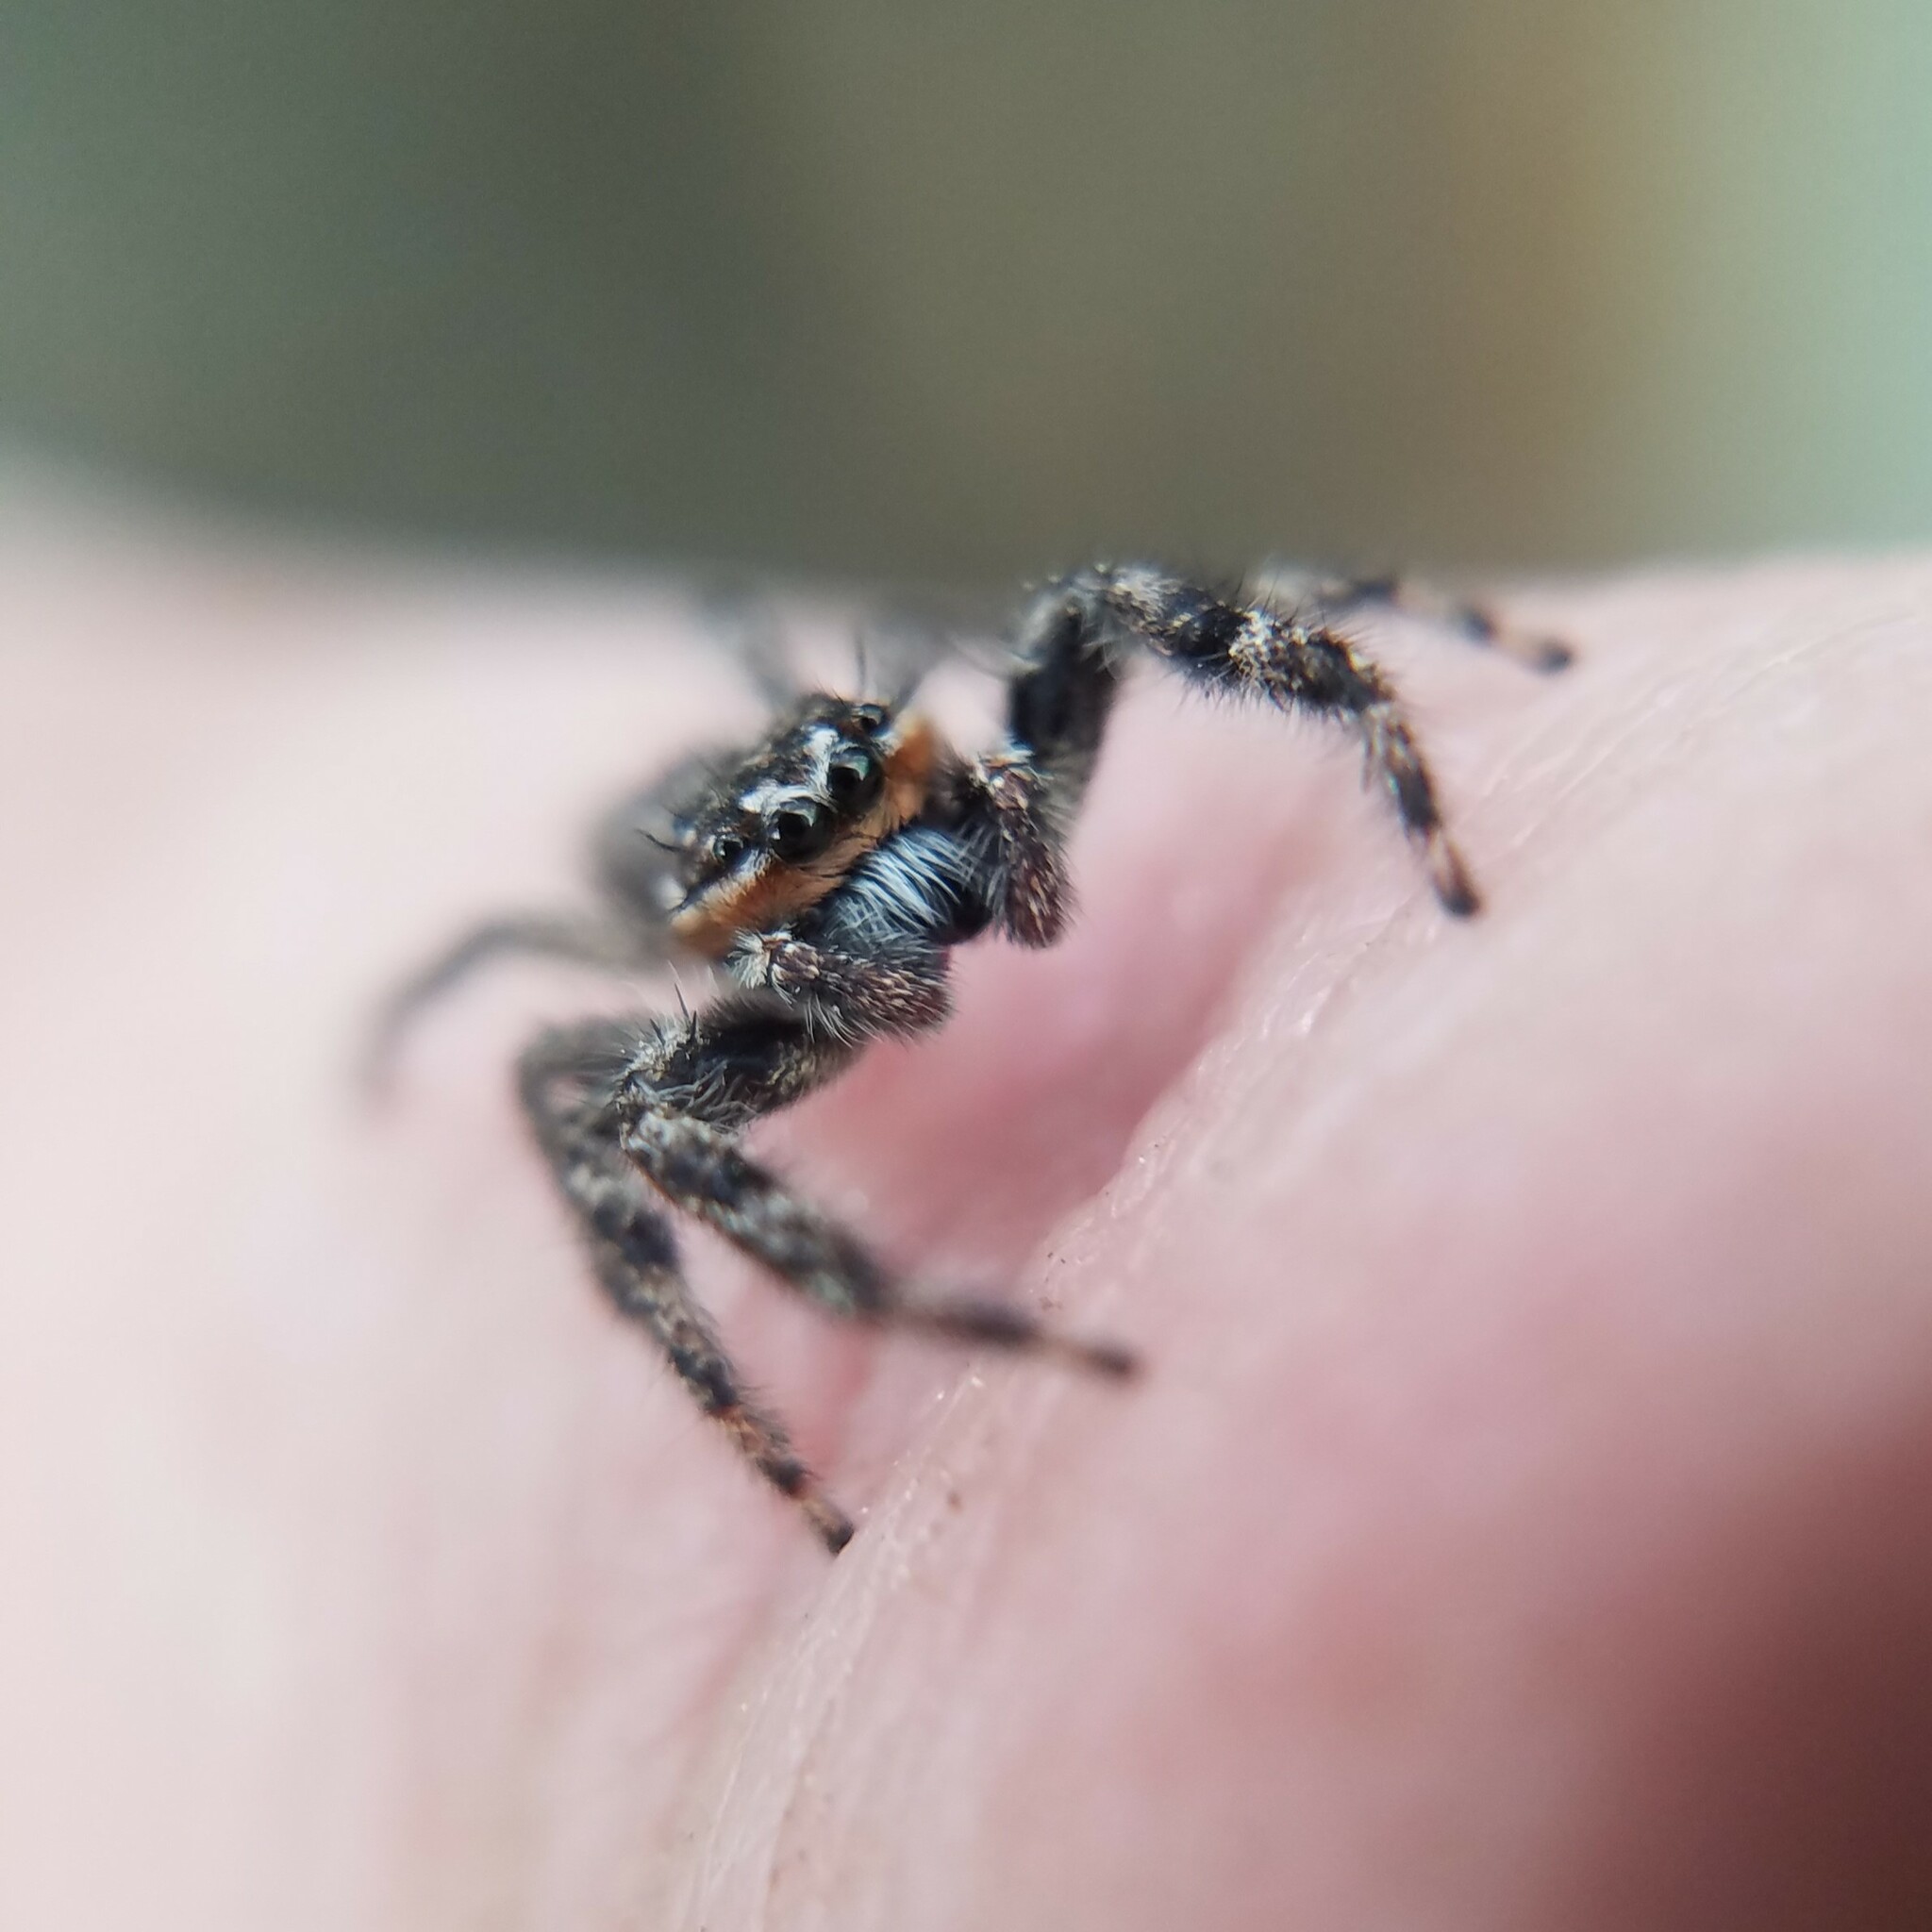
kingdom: Animalia
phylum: Arthropoda
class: Arachnida
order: Araneae
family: Salticidae
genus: Platycryptus
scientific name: Platycryptus undatus
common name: Tan jumping spider
